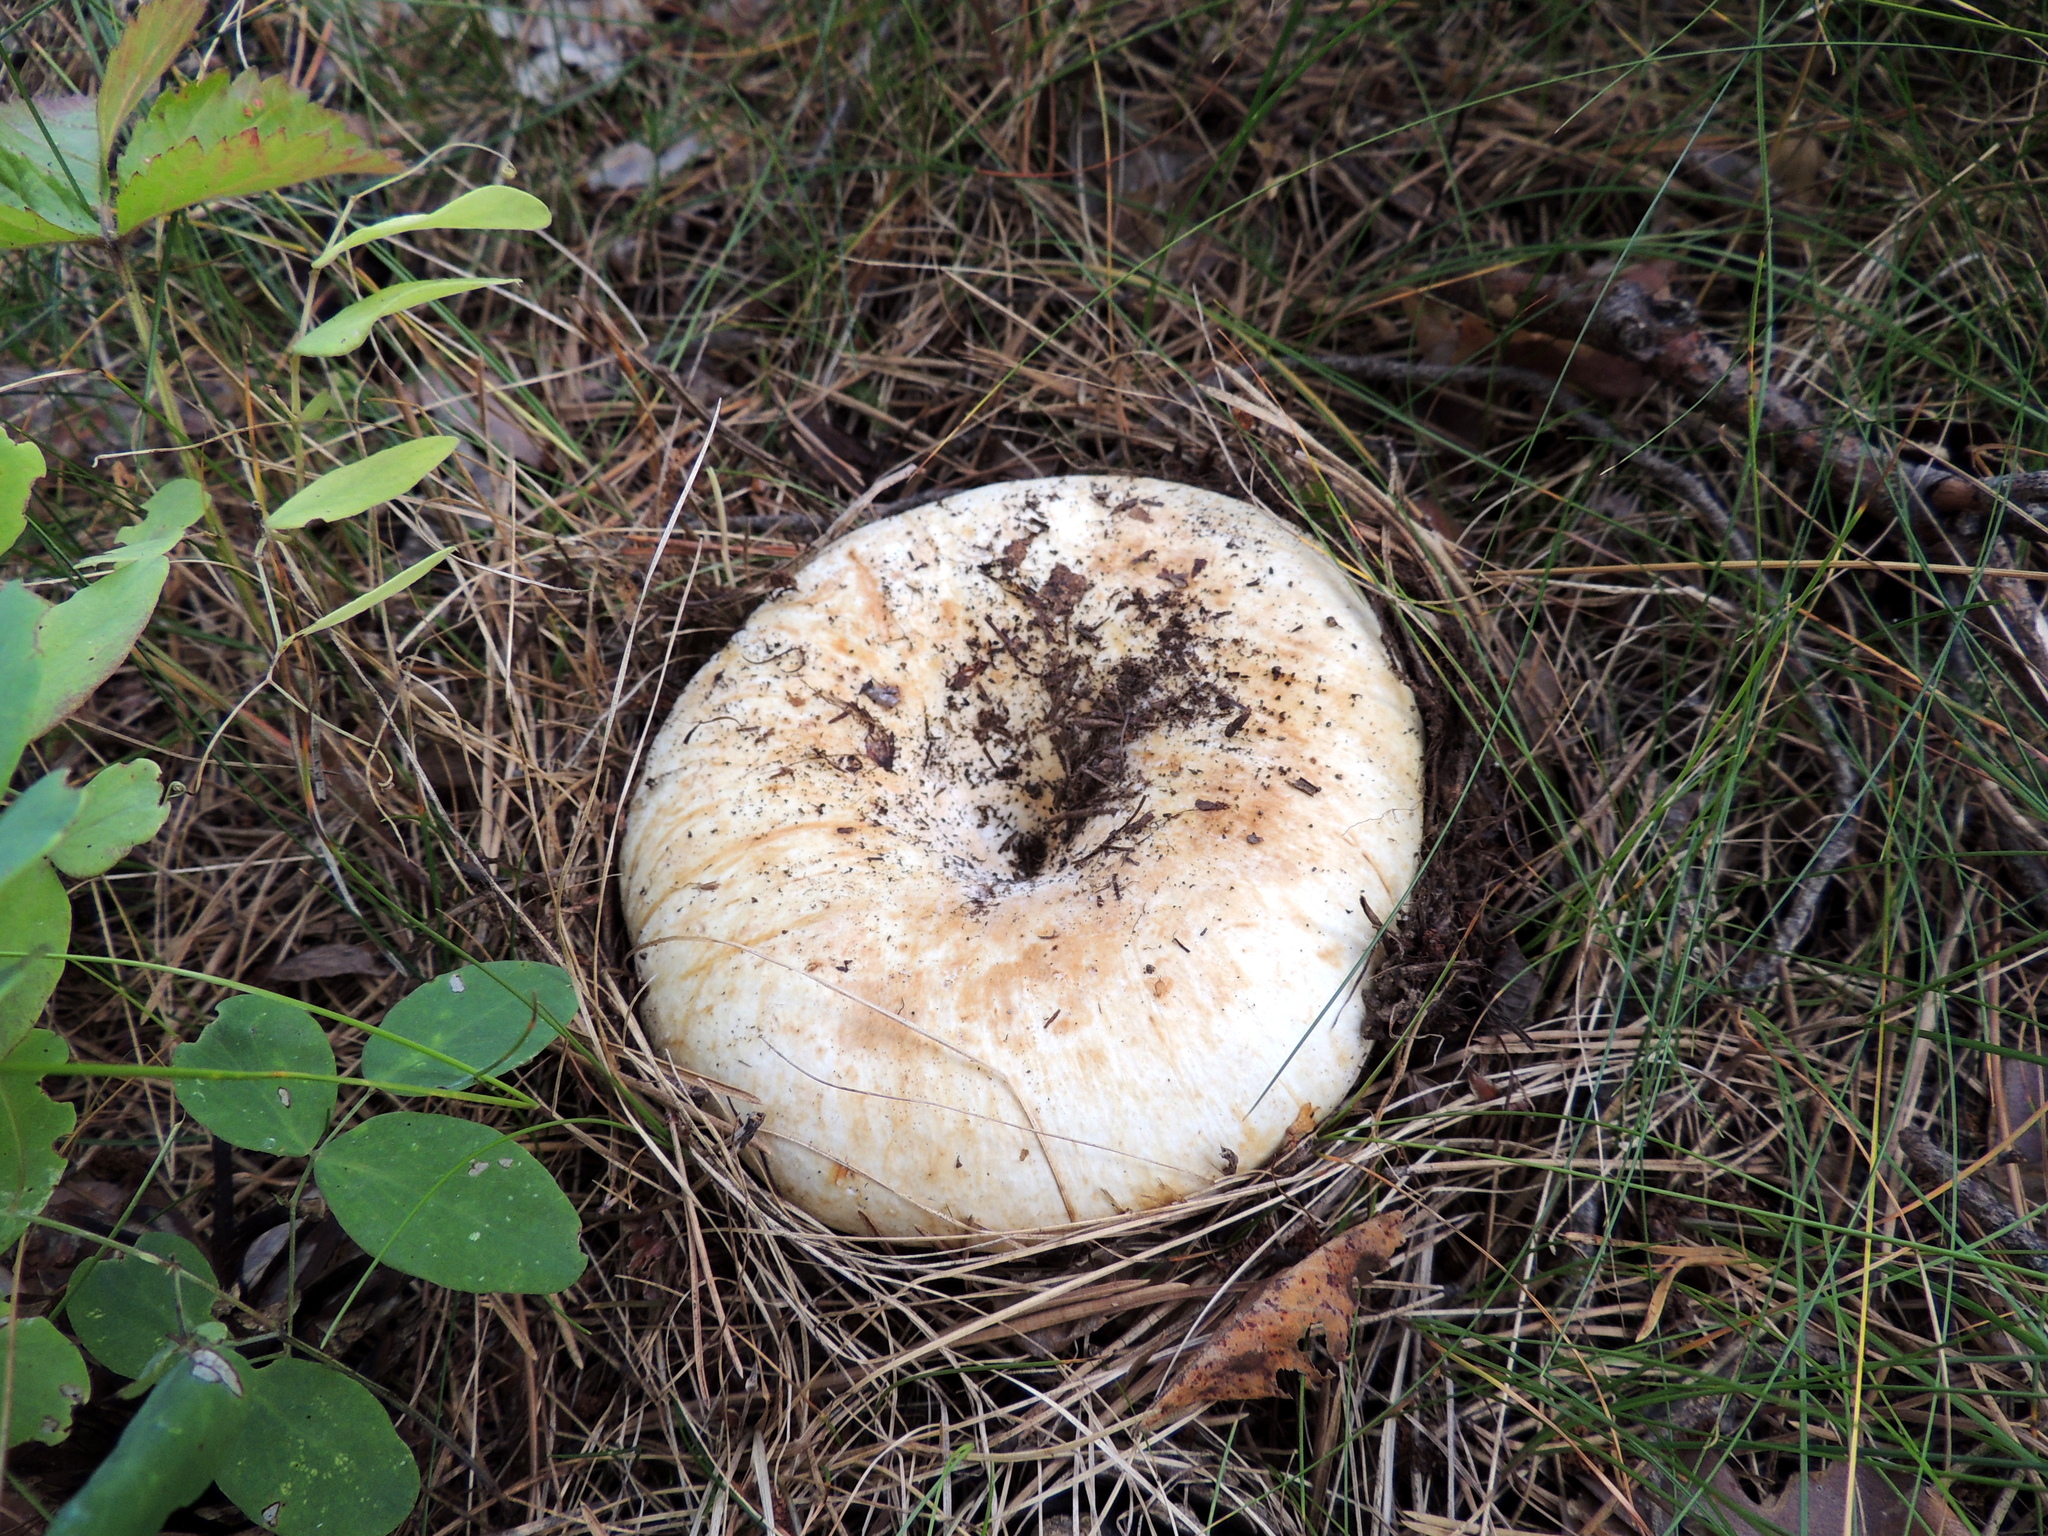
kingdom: Fungi
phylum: Basidiomycota
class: Agaricomycetes
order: Russulales
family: Russulaceae
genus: Russula
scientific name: Russula delica
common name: Milk white brittlegill
